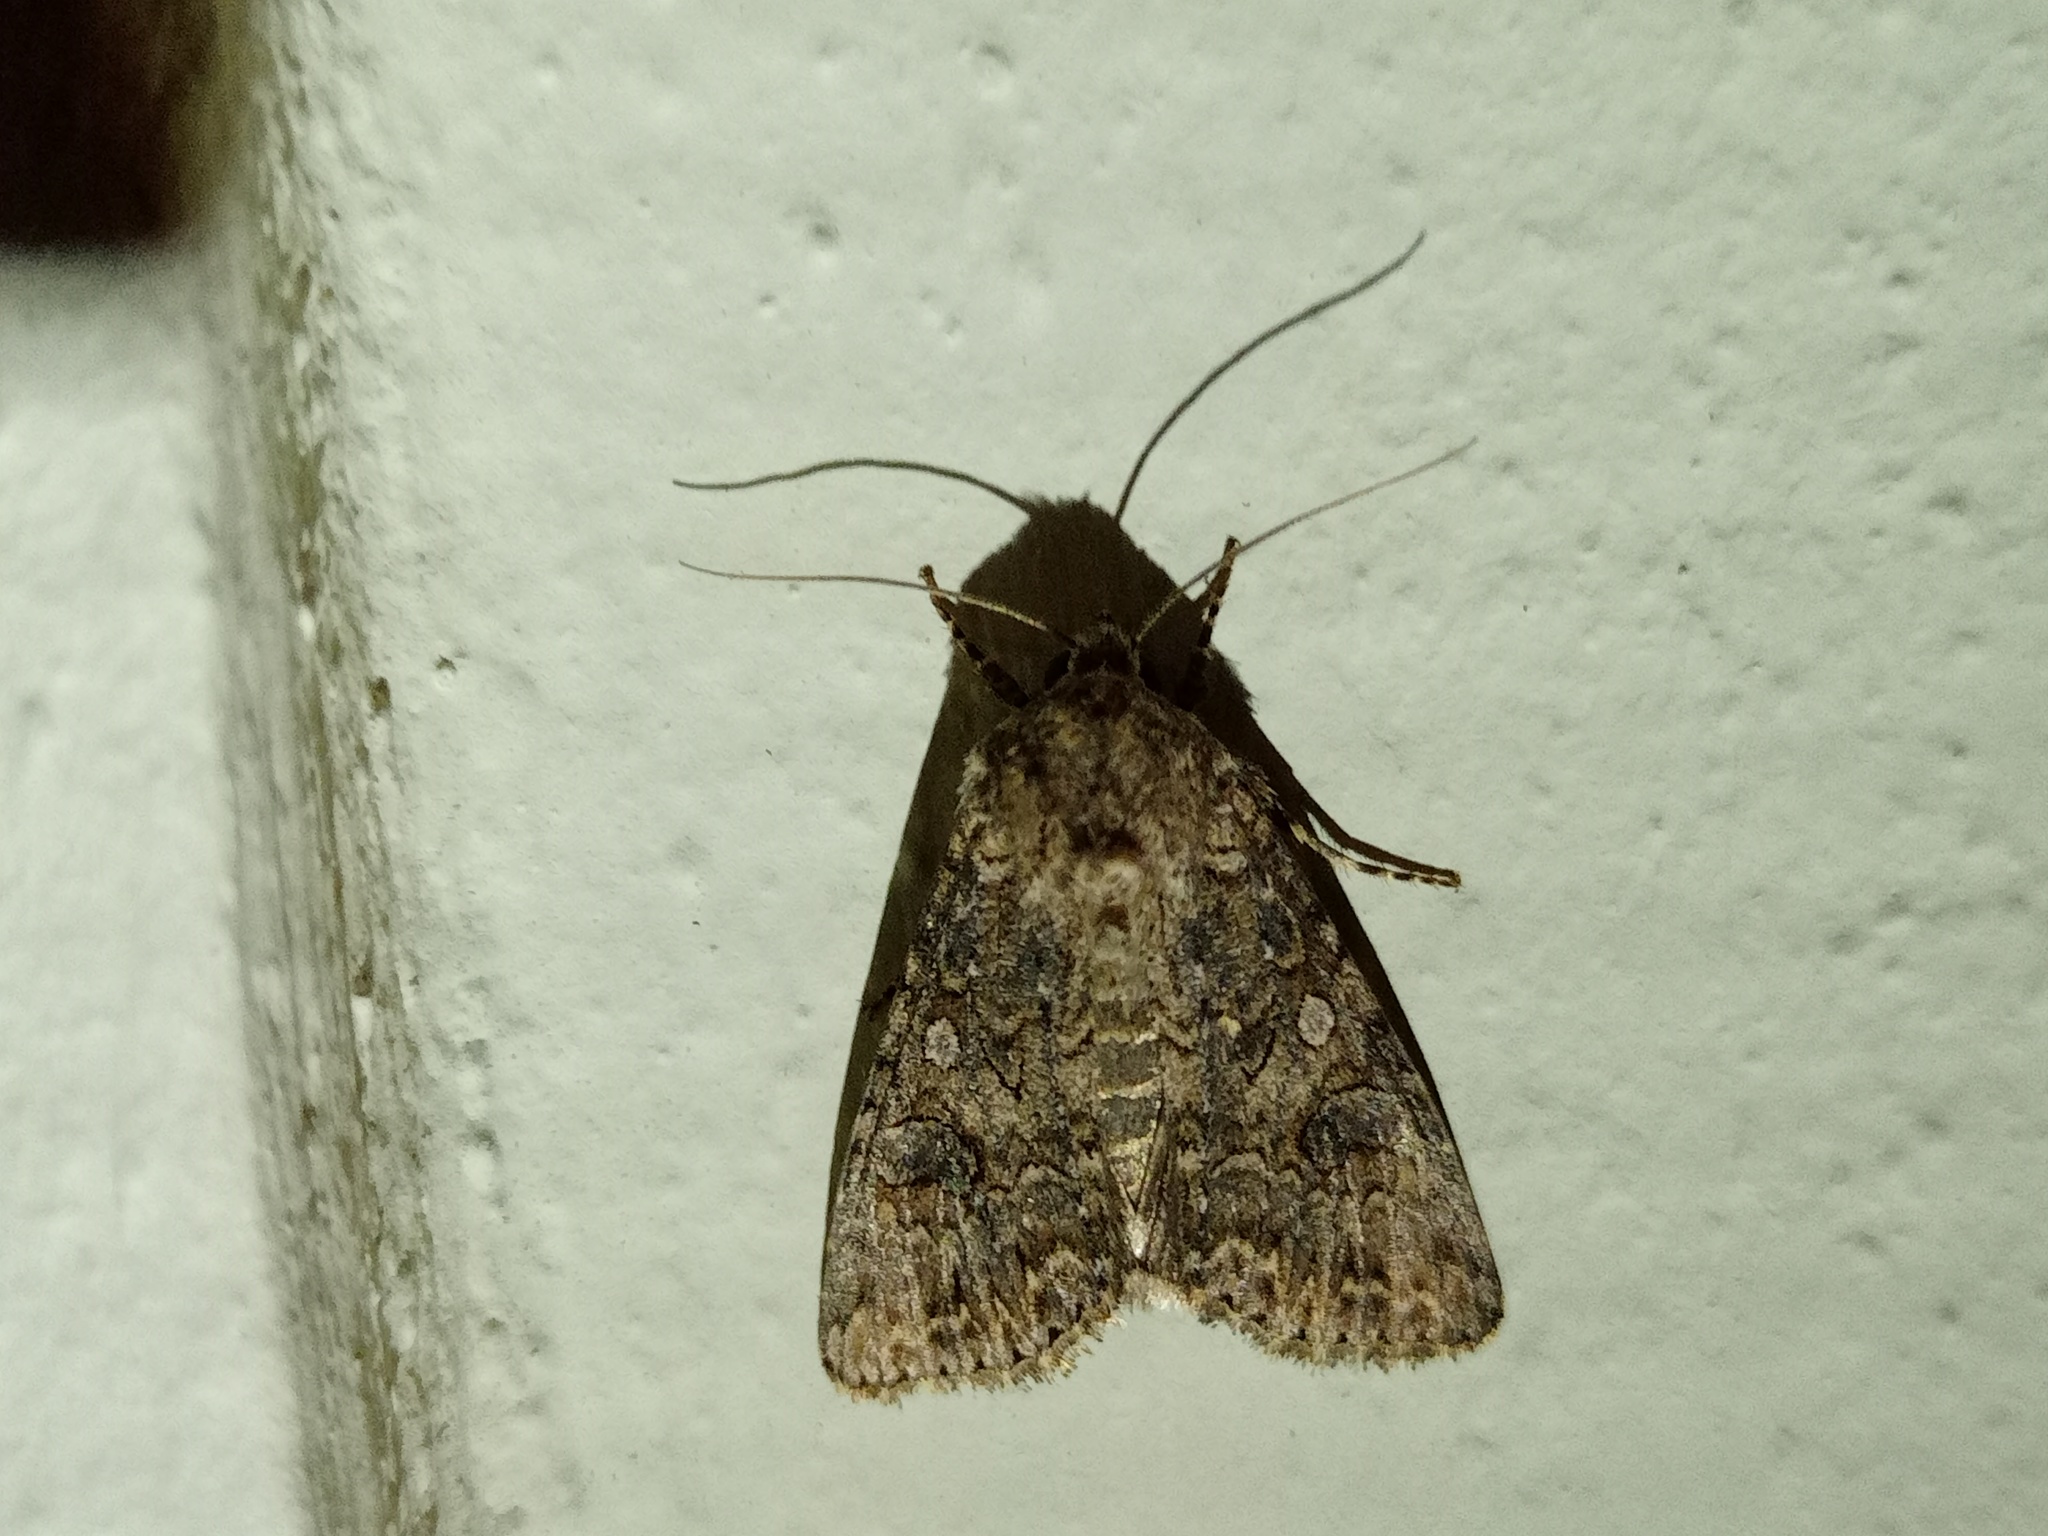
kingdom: Animalia
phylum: Arthropoda
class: Insecta
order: Lepidoptera
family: Noctuidae
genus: Anarta
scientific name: Anarta trifolii
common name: Clover cutworm moth
